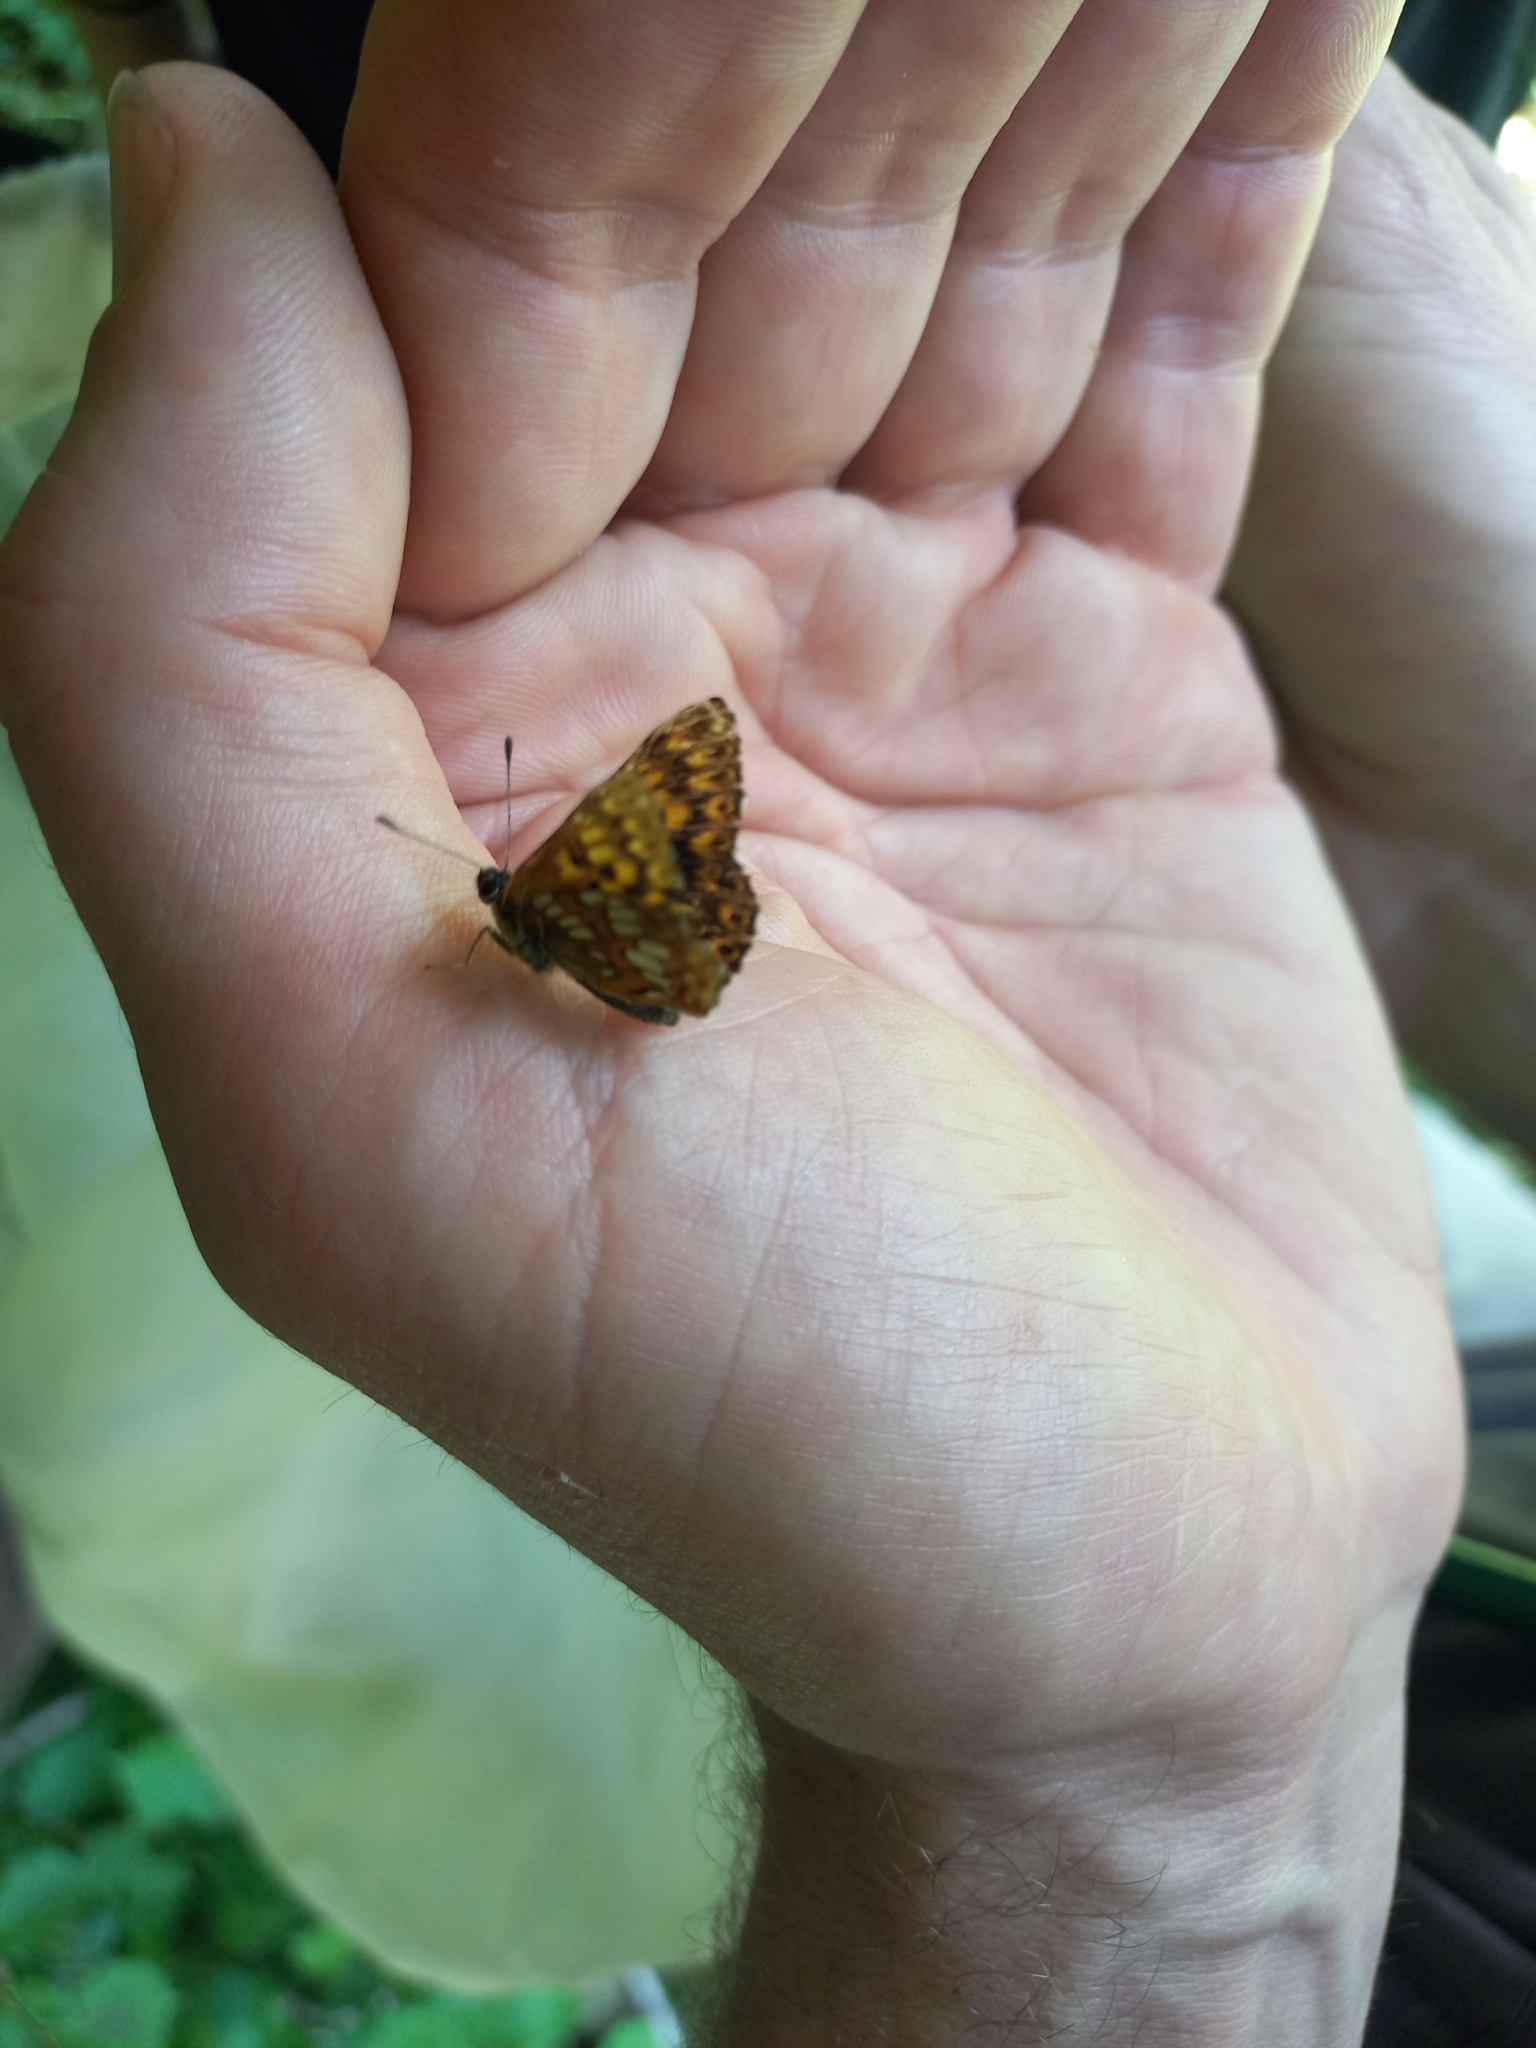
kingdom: Animalia
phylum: Arthropoda
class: Insecta
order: Lepidoptera
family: Riodinidae
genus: Hamearis
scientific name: Hamearis lucina
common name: Duke of burgundy fritillary
